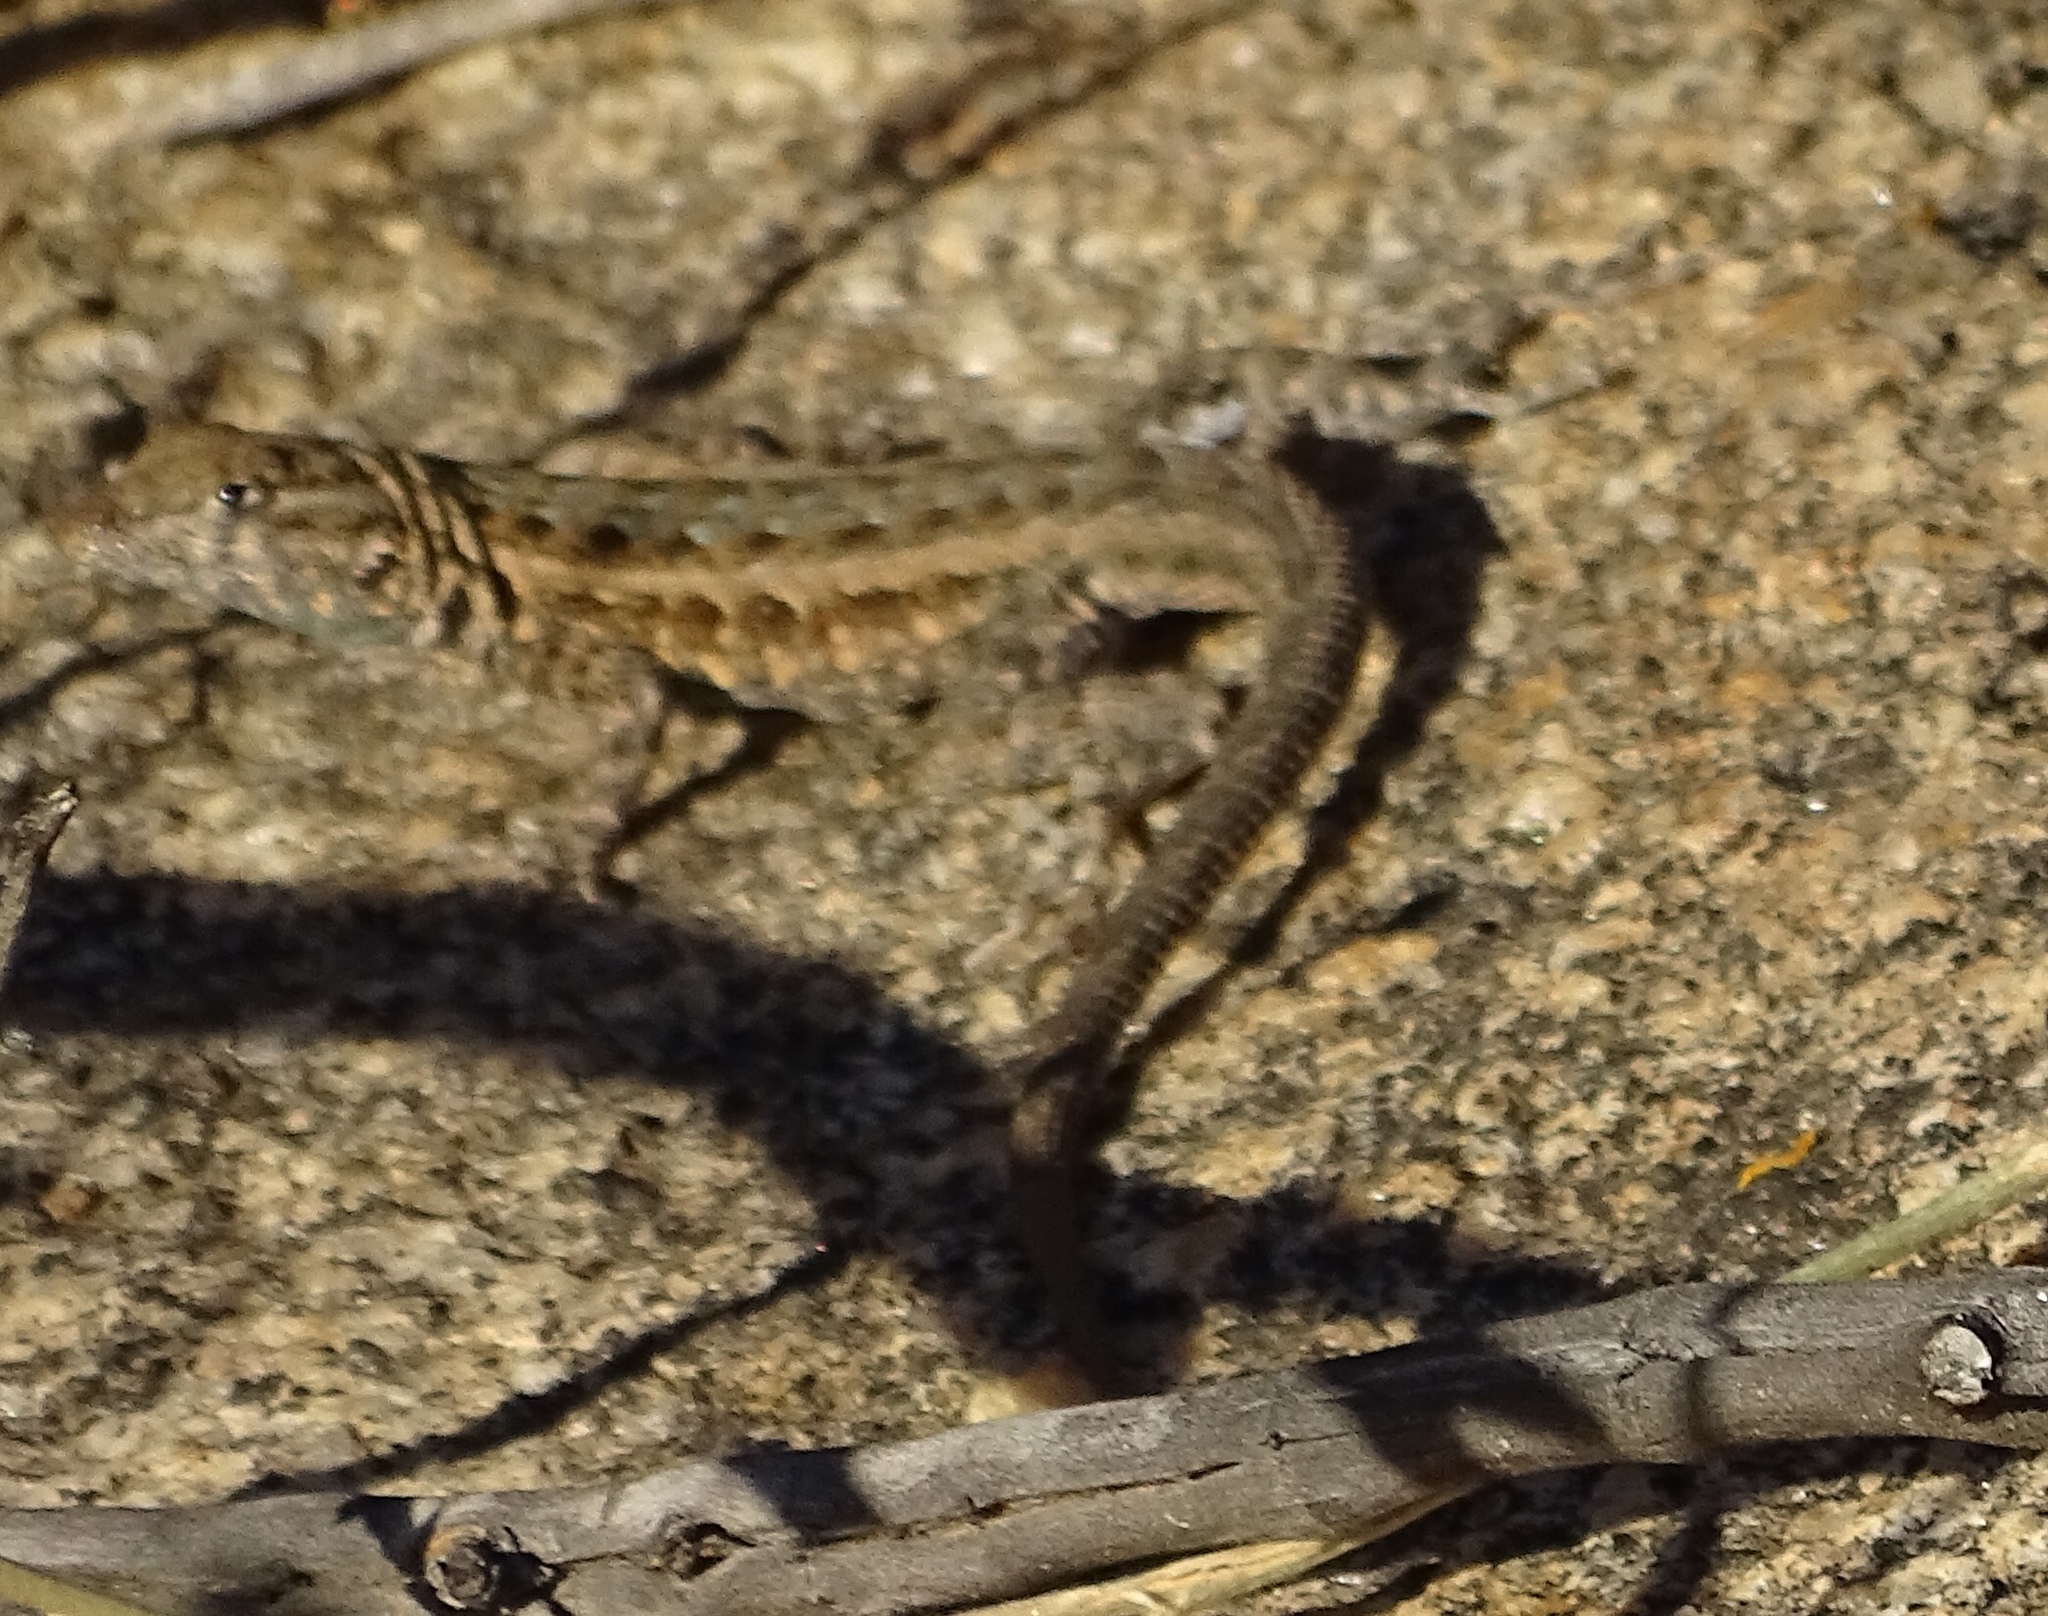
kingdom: Animalia
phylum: Chordata
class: Squamata
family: Phrynosomatidae
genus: Uta
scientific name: Uta stansburiana
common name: Side-blotched lizard
